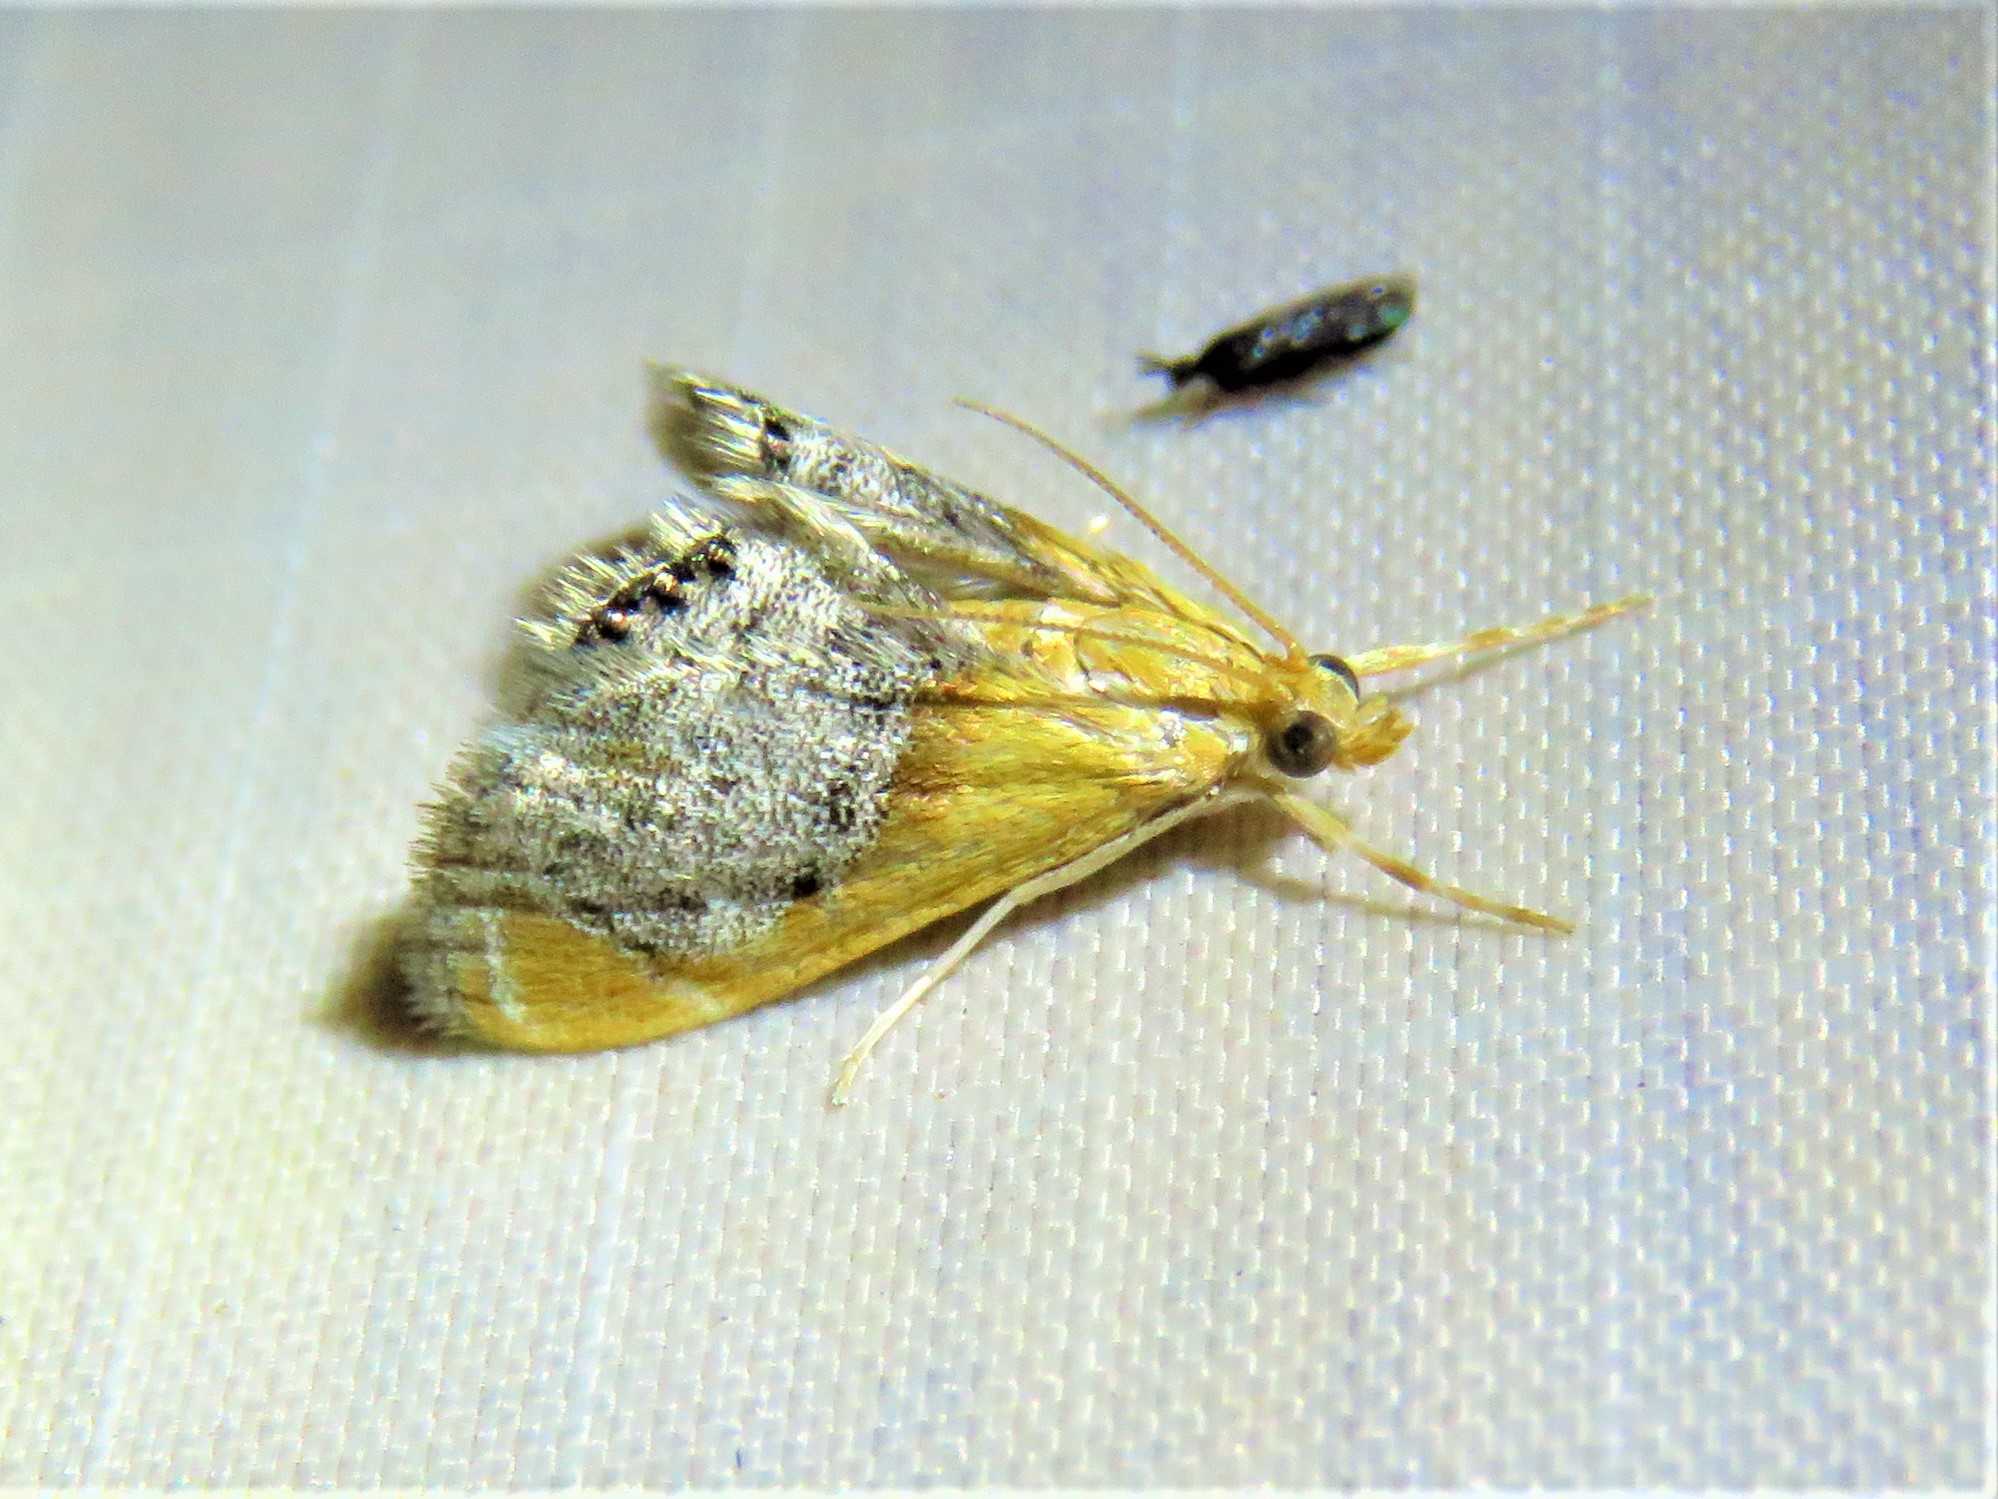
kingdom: Animalia
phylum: Arthropoda
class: Insecta
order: Lepidoptera
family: Crambidae
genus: Chalcoela
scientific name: Chalcoela iphitalis
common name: Sooty-winged chalcoela moth
